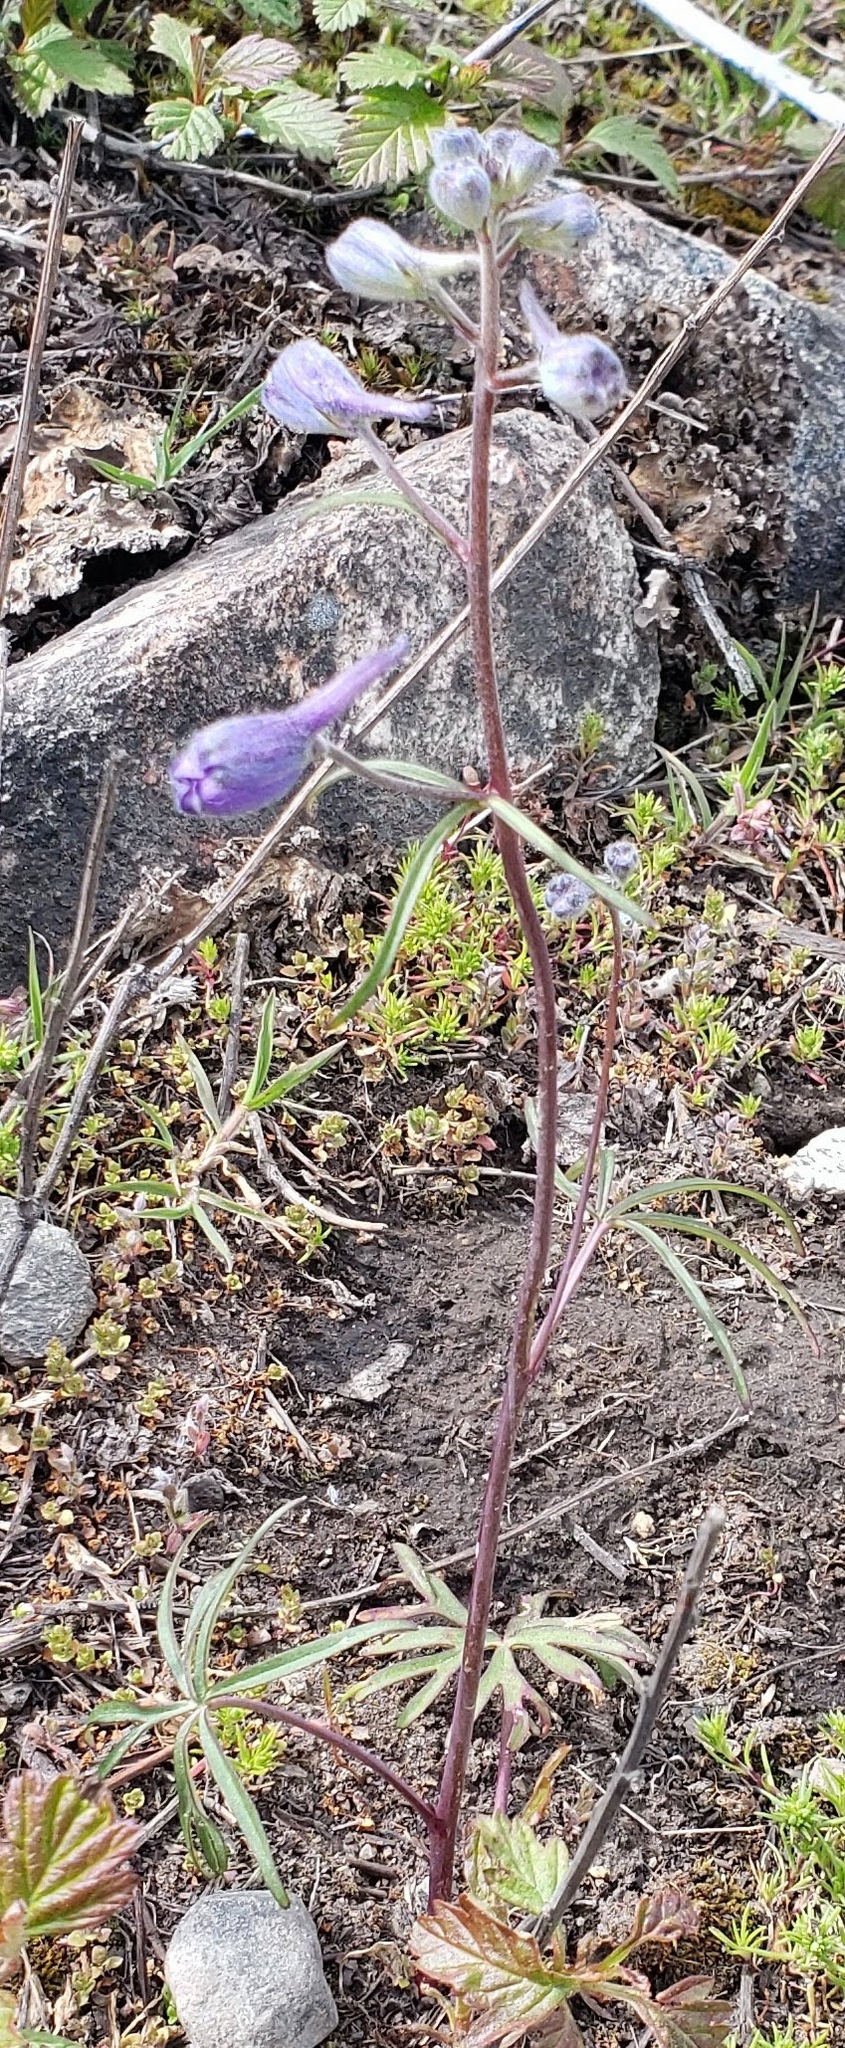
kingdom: Plantae
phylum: Tracheophyta
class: Magnoliopsida
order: Ranunculales
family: Ranunculaceae
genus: Delphinium
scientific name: Delphinium nuttallianum
